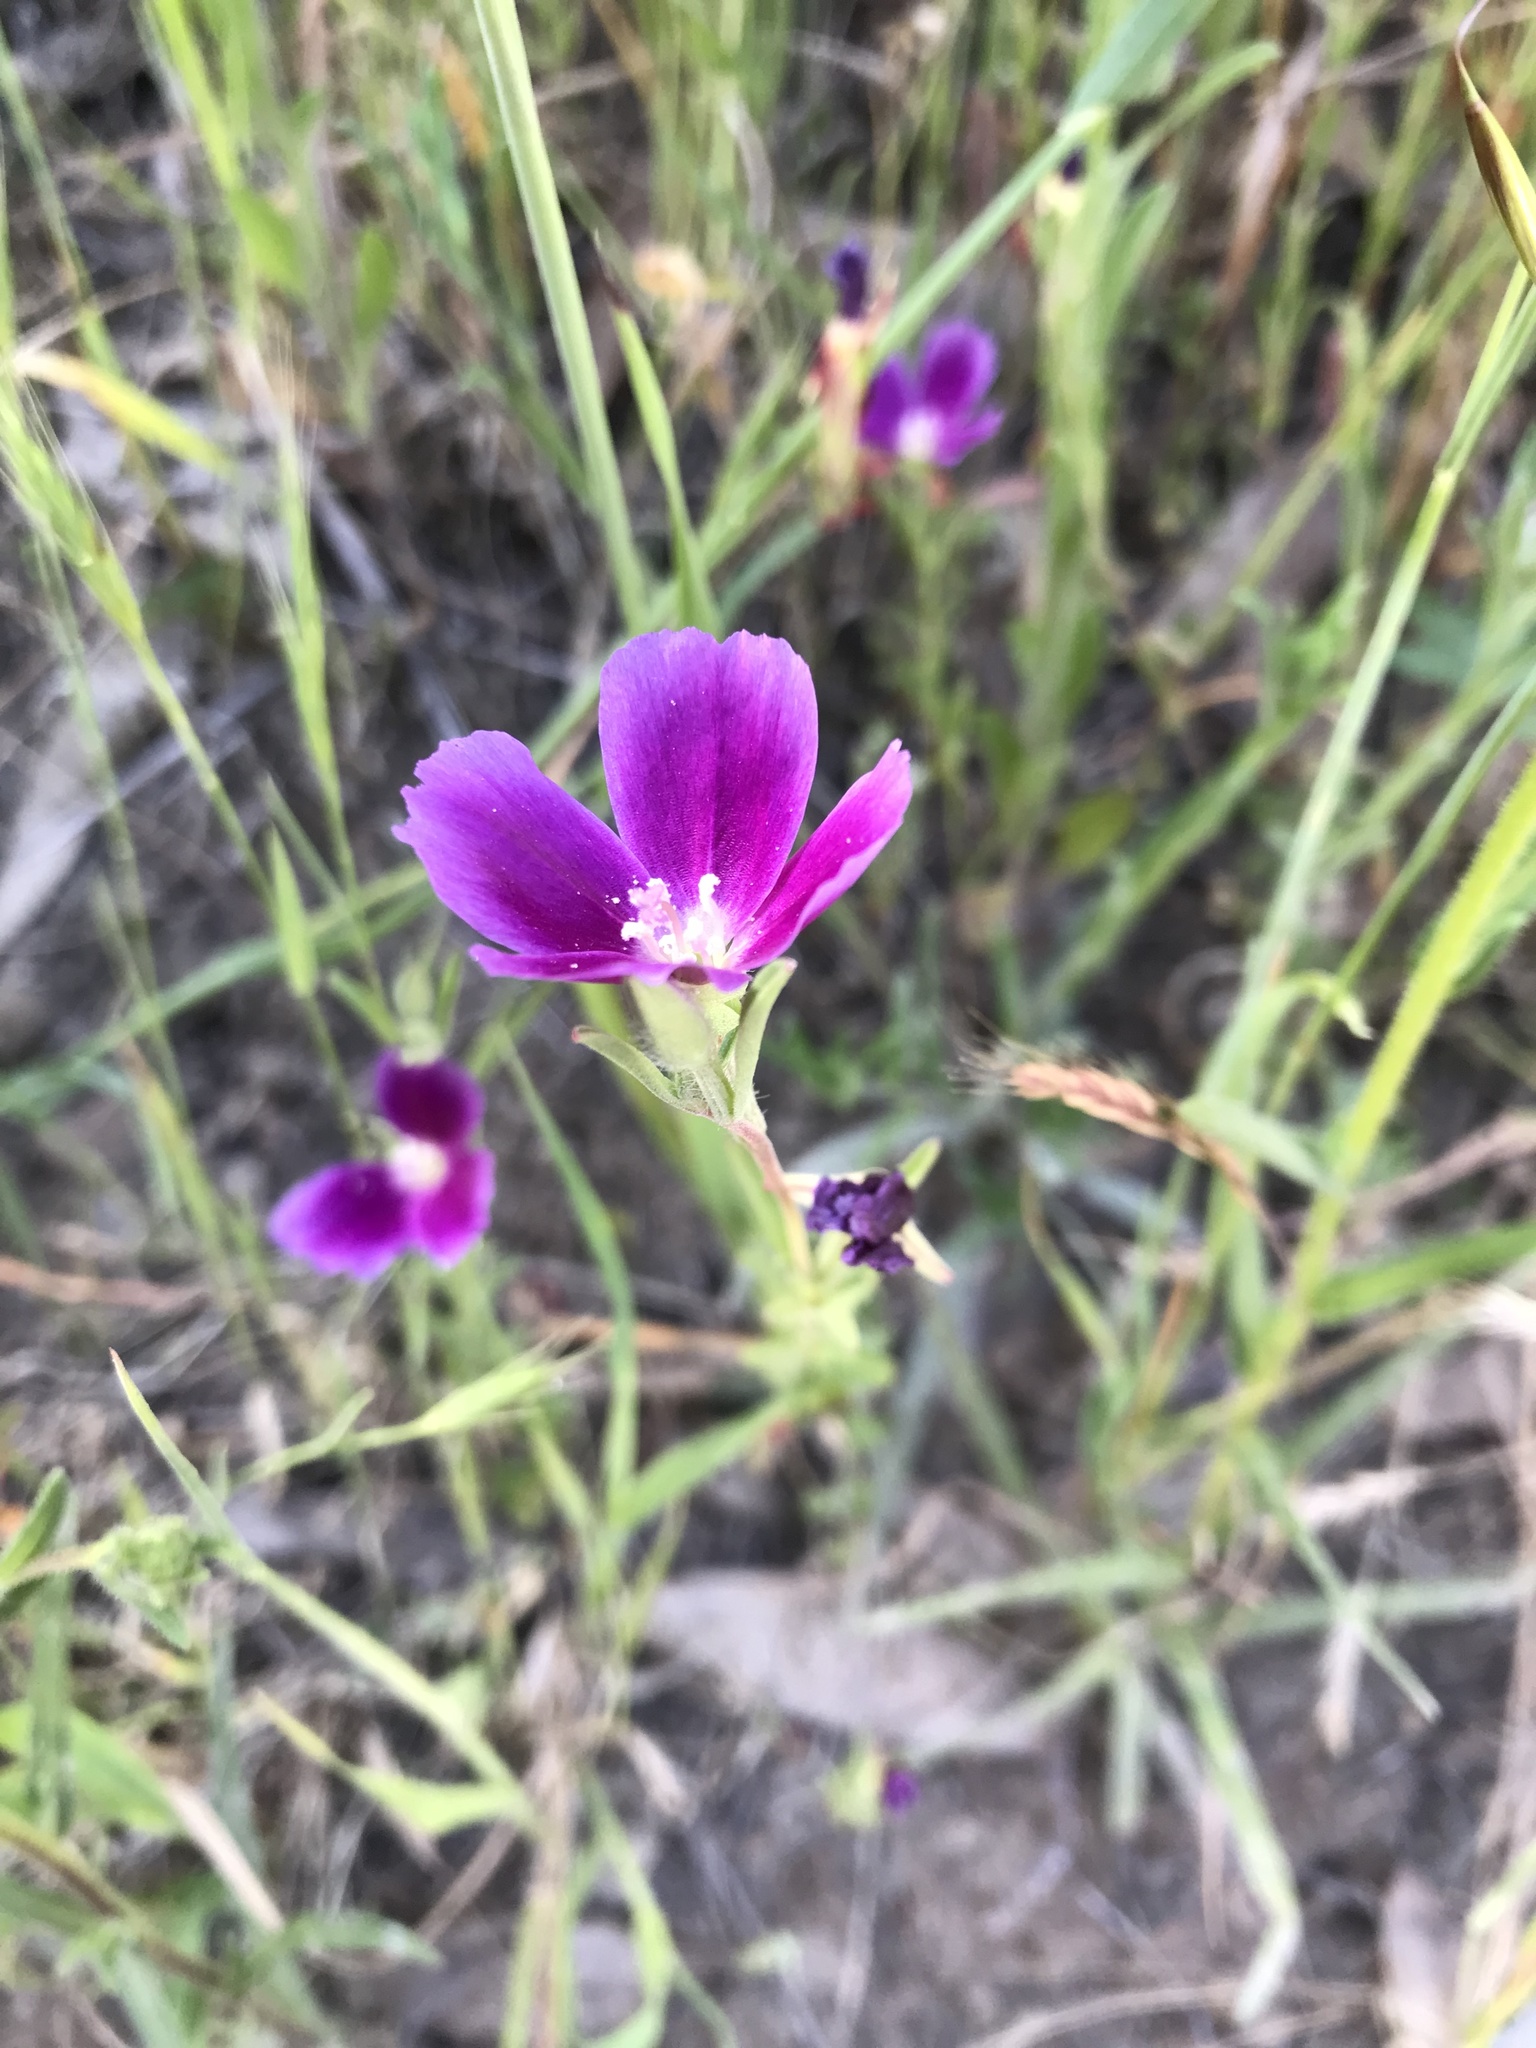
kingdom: Plantae
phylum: Tracheophyta
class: Magnoliopsida
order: Myrtales
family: Onagraceae
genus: Clarkia
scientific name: Clarkia purpurea
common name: Purple clarkia
